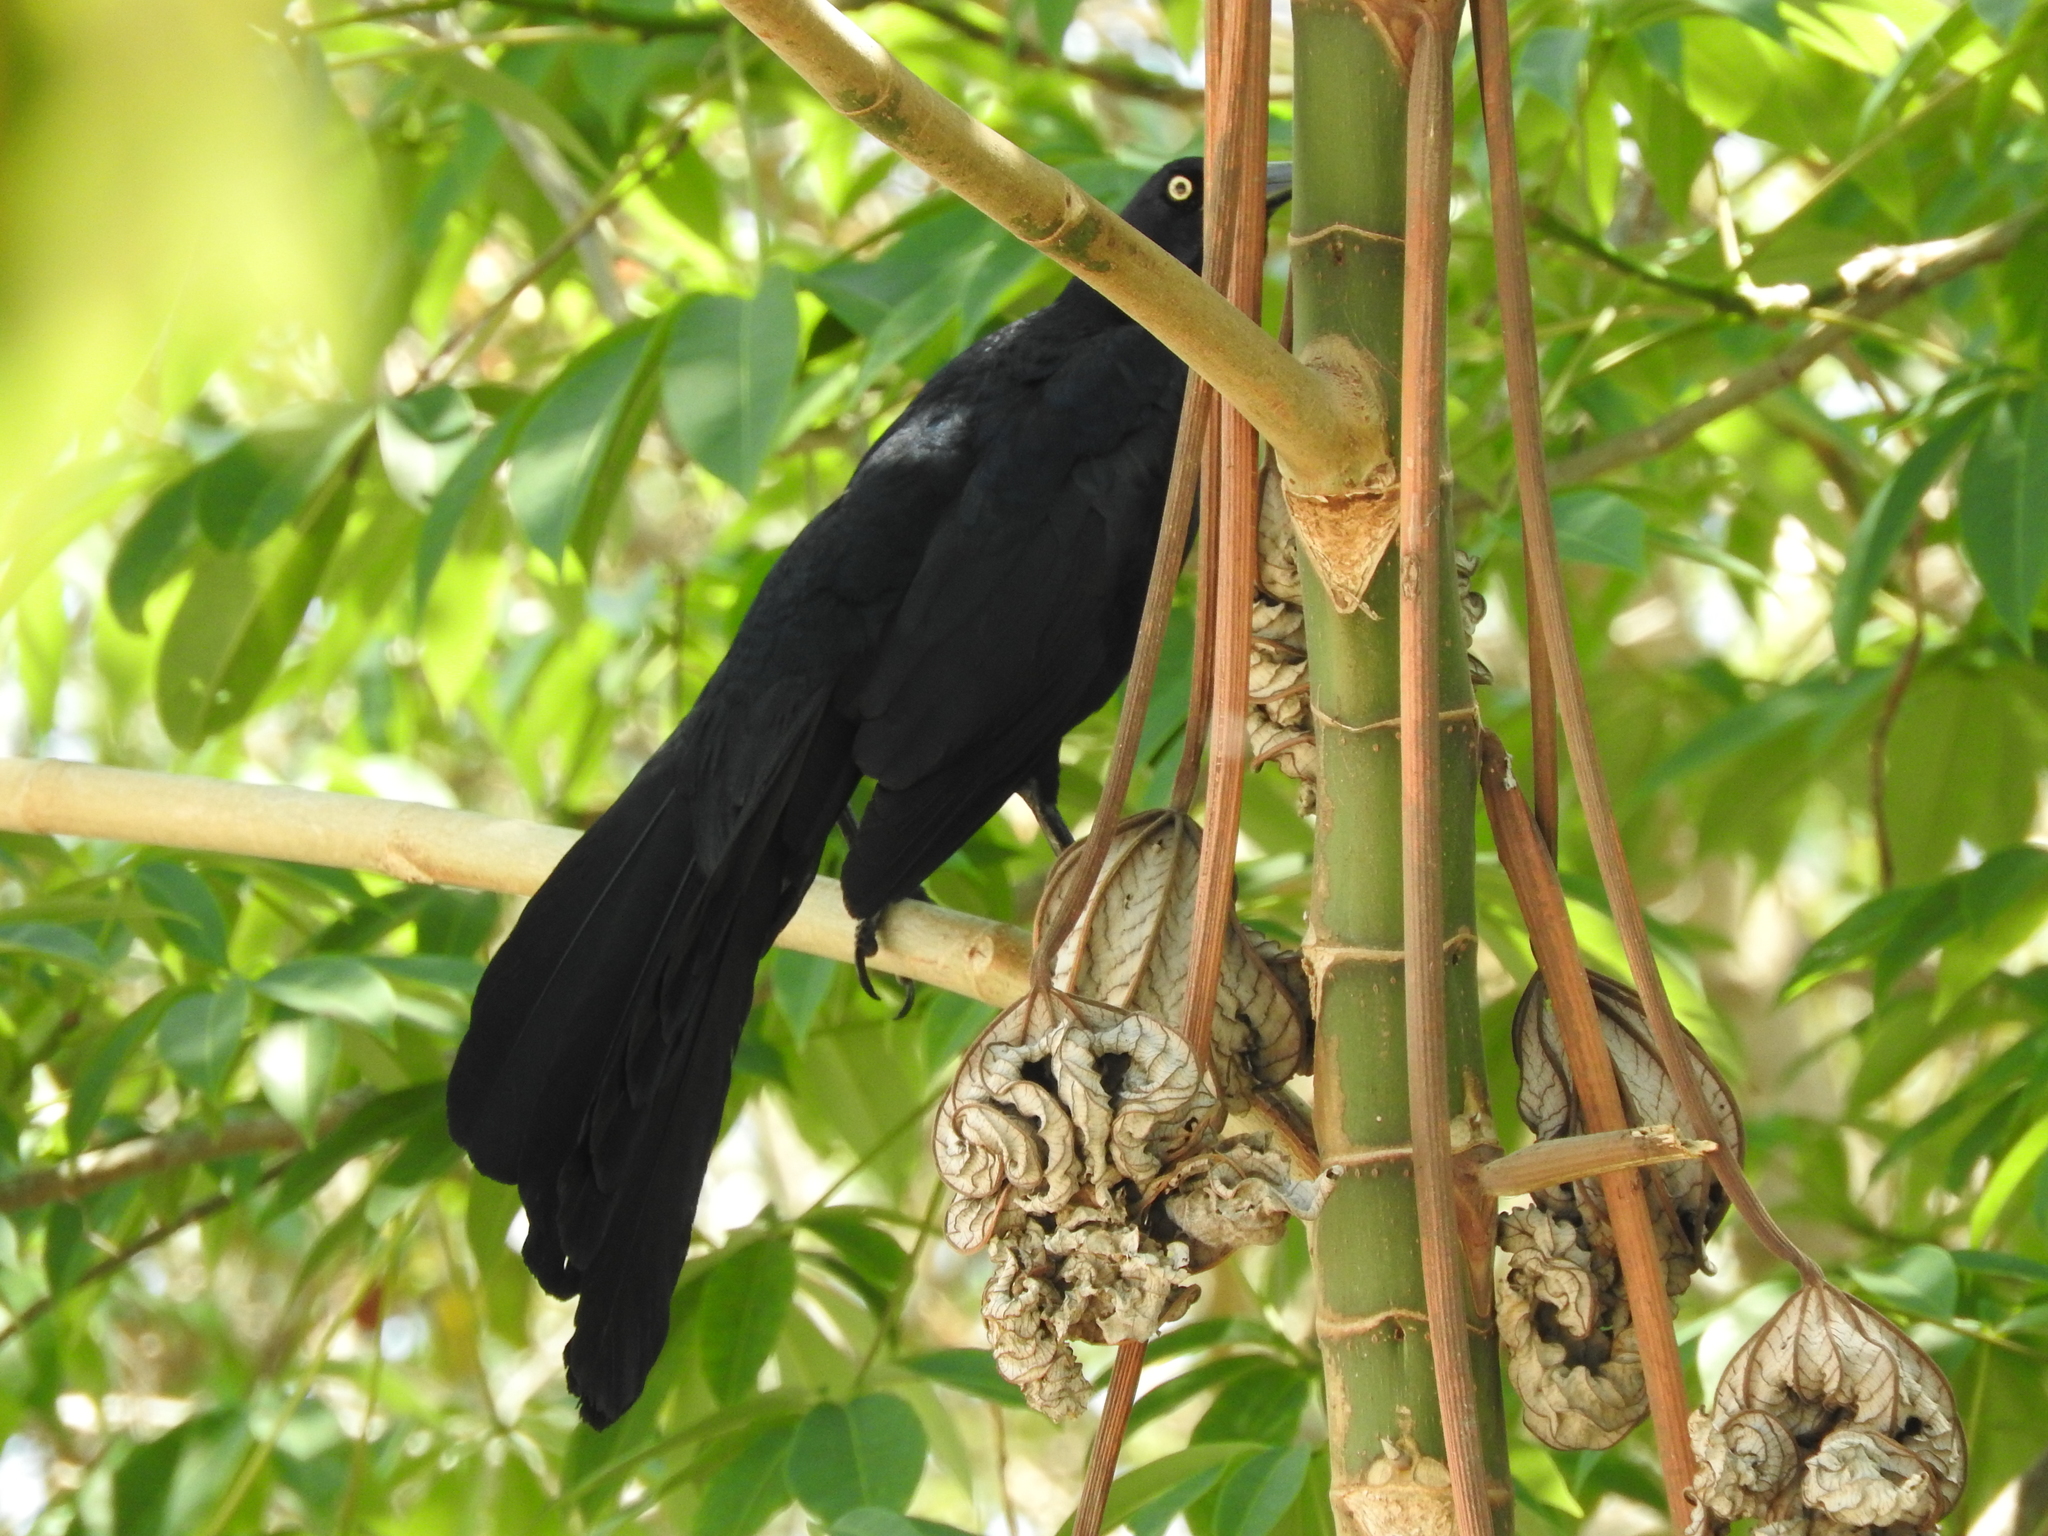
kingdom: Animalia
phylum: Chordata
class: Aves
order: Passeriformes
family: Icteridae
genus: Quiscalus
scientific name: Quiscalus mexicanus
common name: Great-tailed grackle
